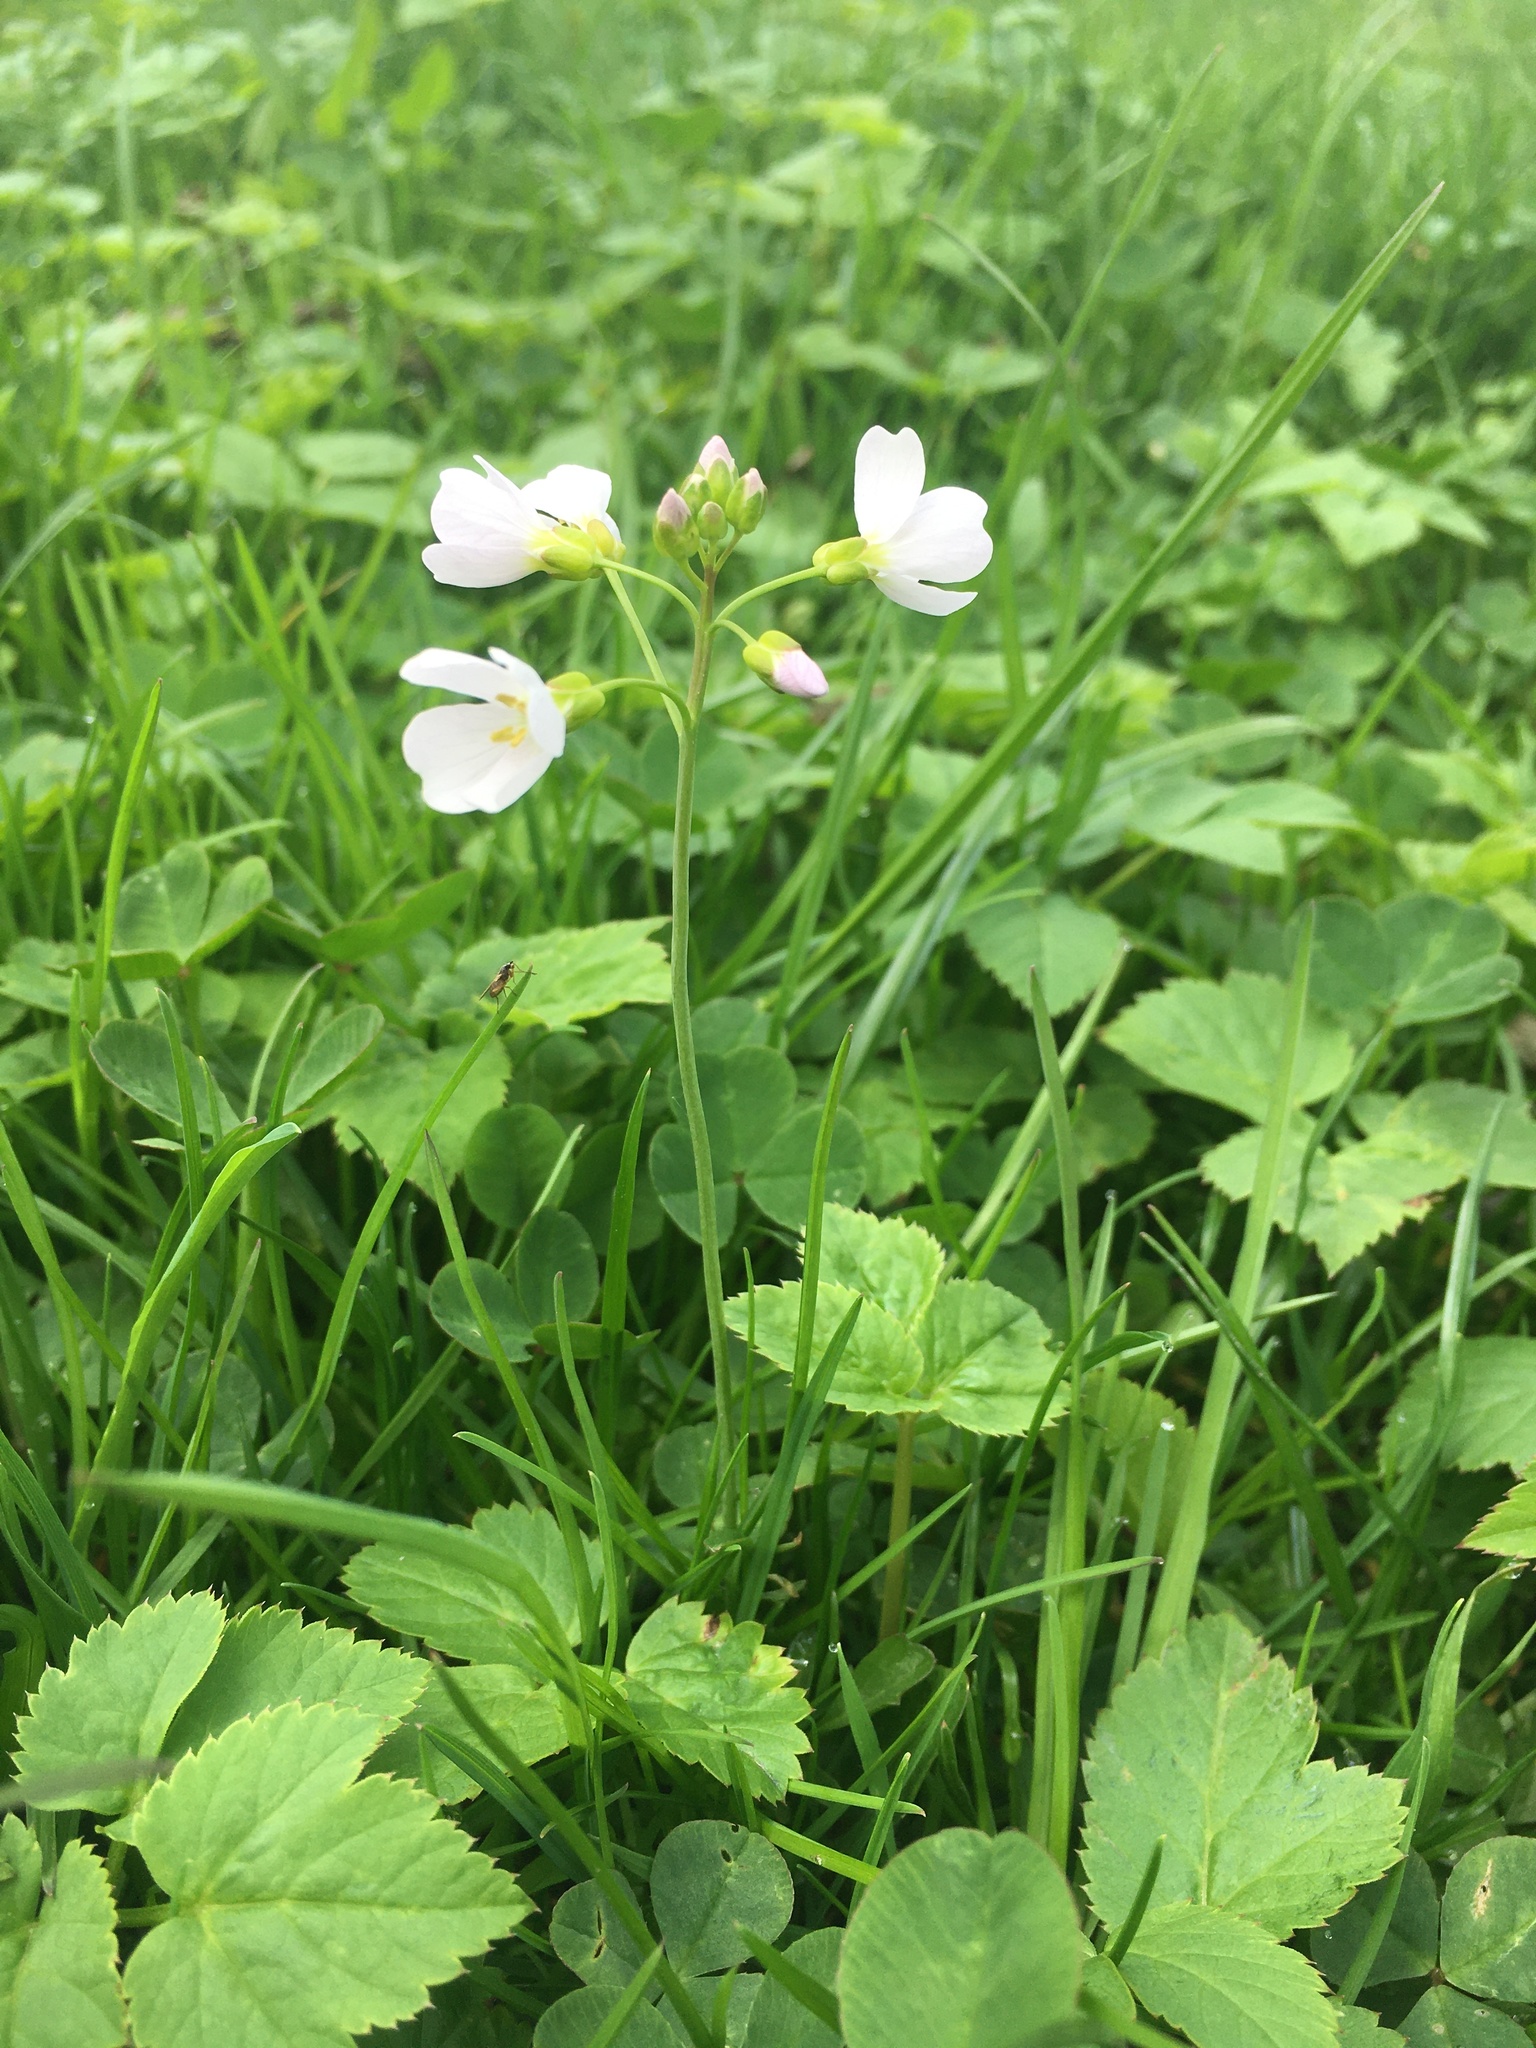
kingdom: Plantae
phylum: Tracheophyta
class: Magnoliopsida
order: Brassicales
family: Brassicaceae
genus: Cardamine
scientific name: Cardamine pratensis
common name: Cuckoo flower
